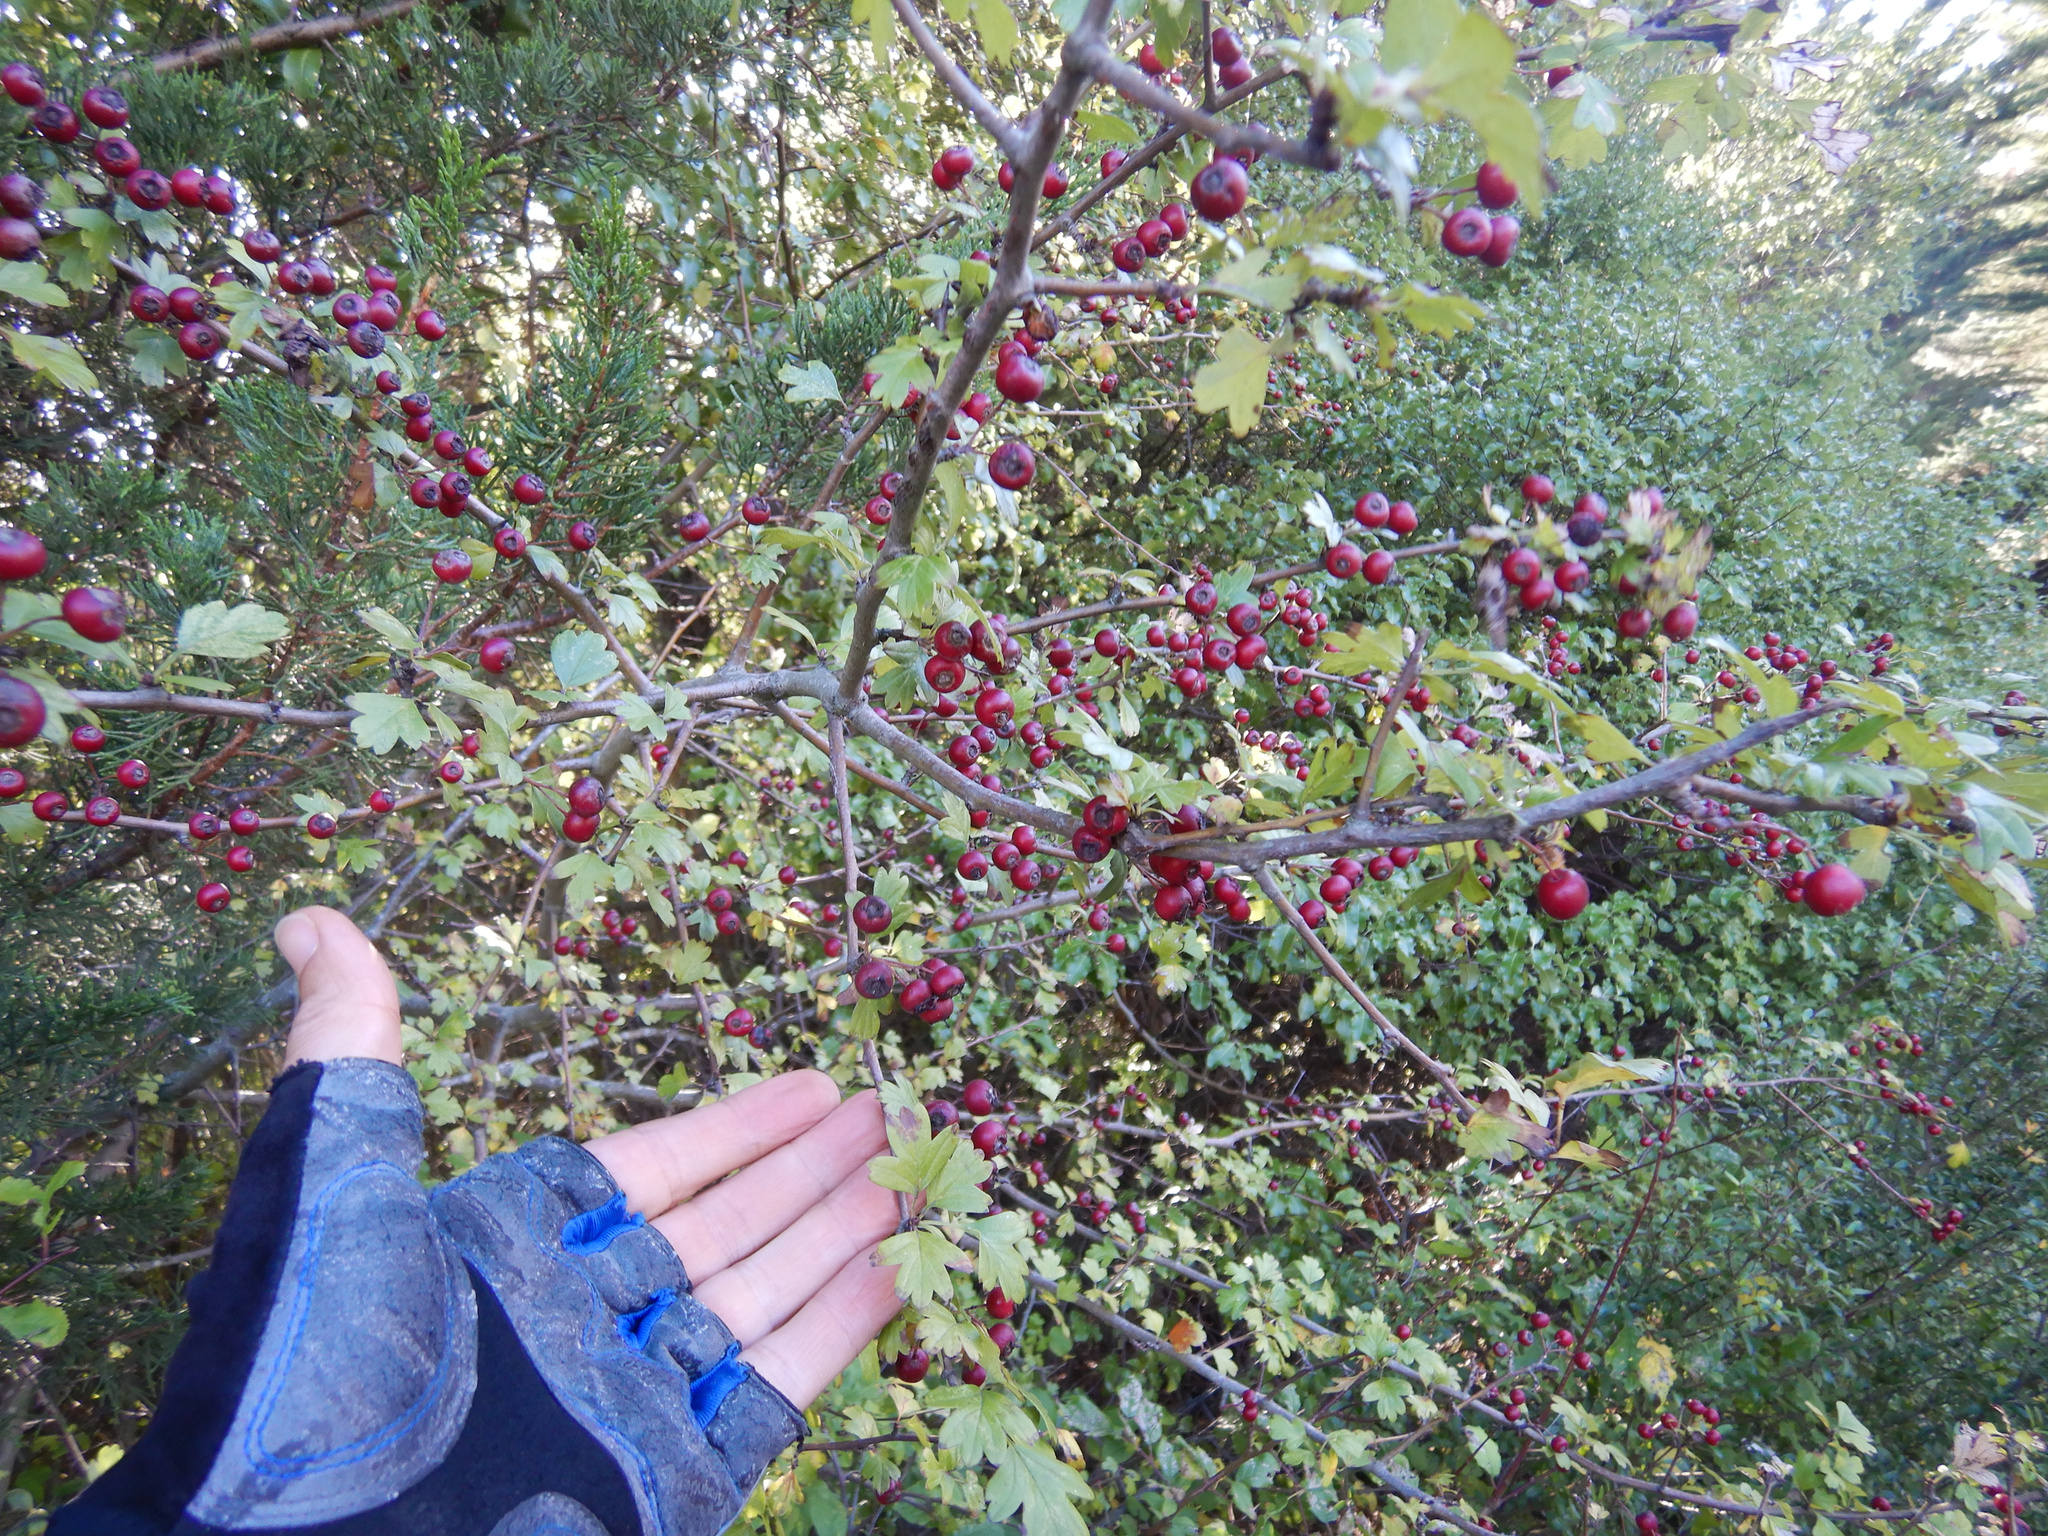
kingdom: Plantae
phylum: Tracheophyta
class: Magnoliopsida
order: Rosales
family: Rosaceae
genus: Crataegus
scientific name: Crataegus monogyna
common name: Hawthorn
